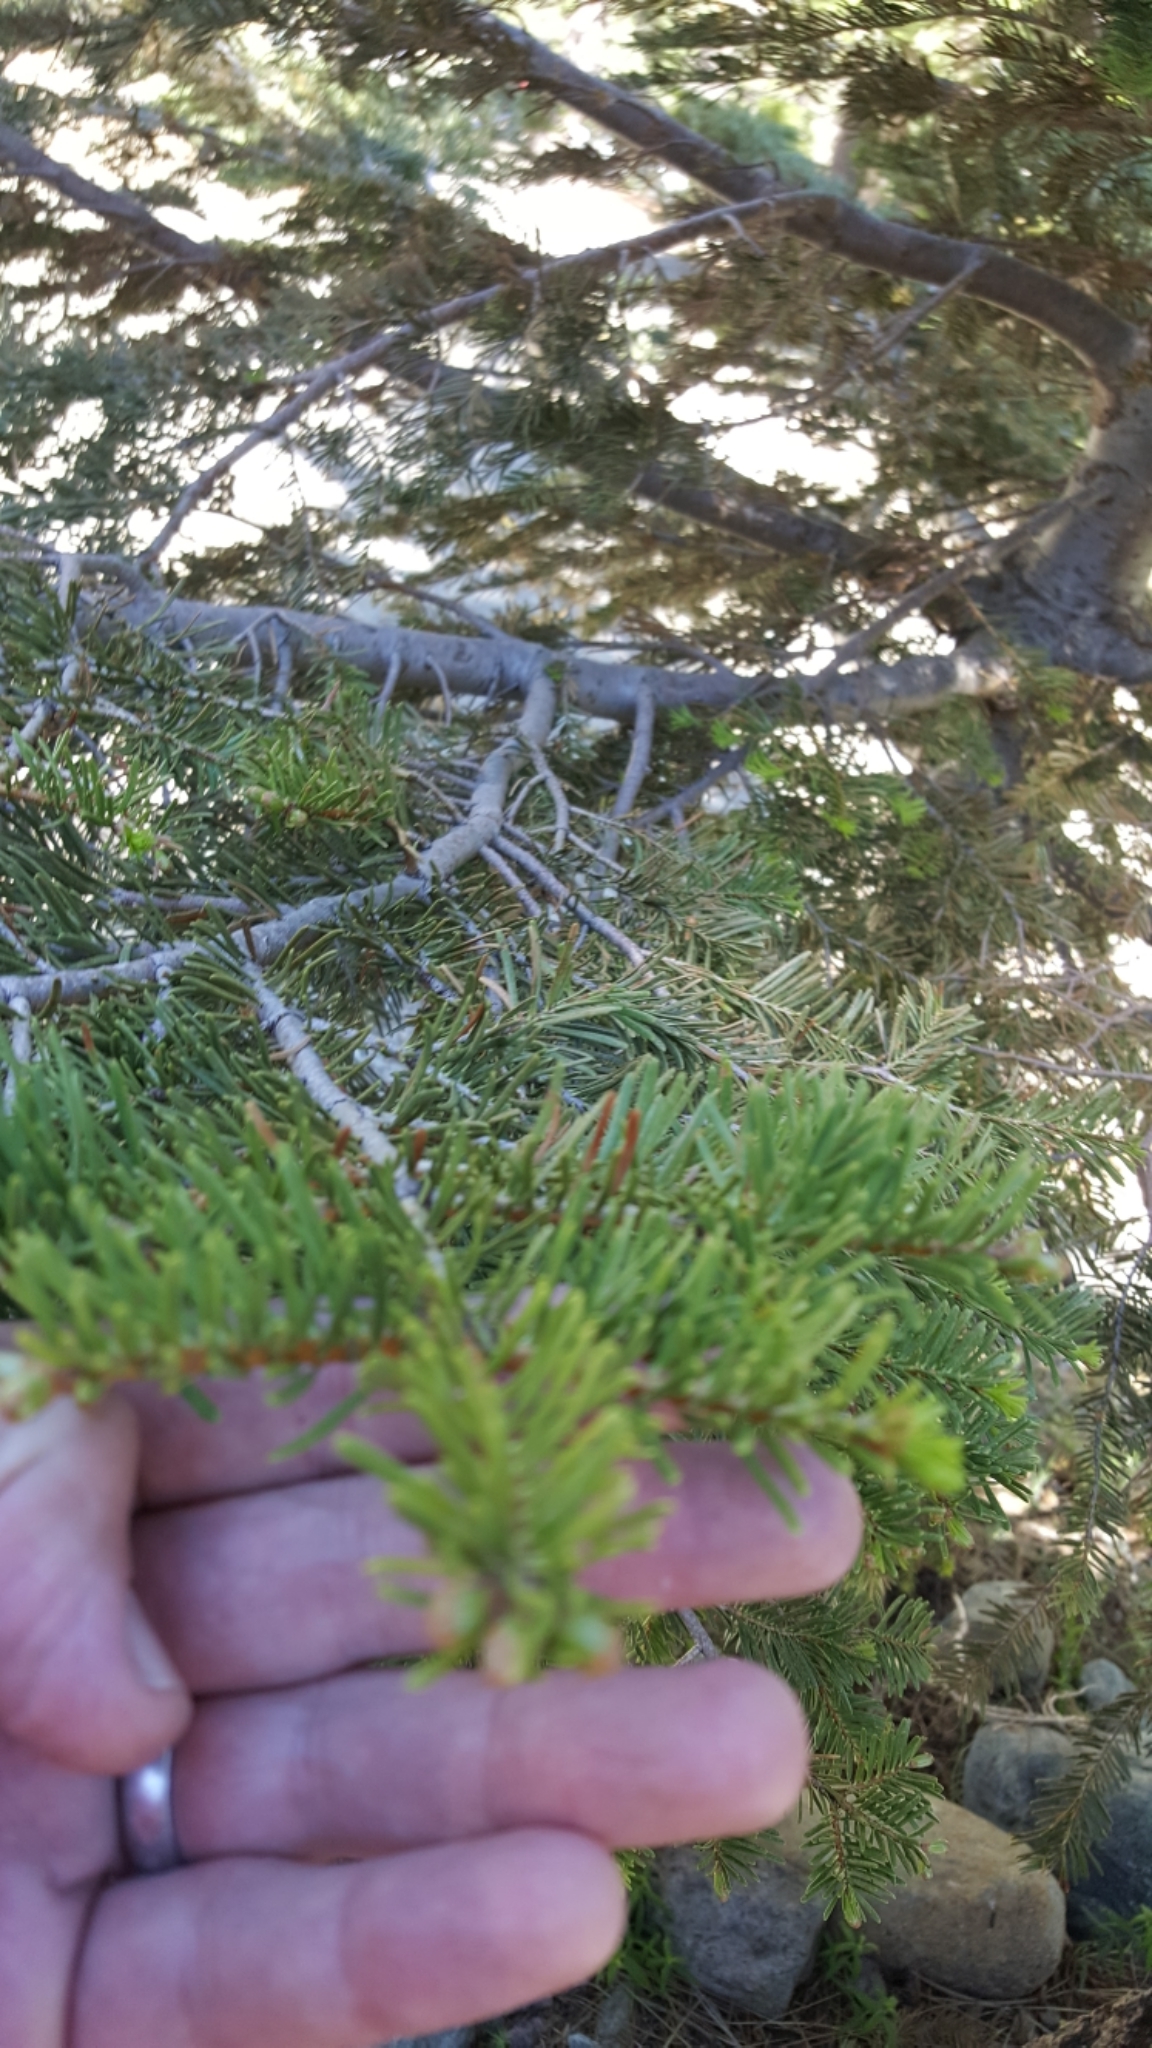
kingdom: Plantae
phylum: Tracheophyta
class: Pinopsida
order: Pinales
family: Pinaceae
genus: Abies
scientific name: Abies concolor
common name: Colorado fir
